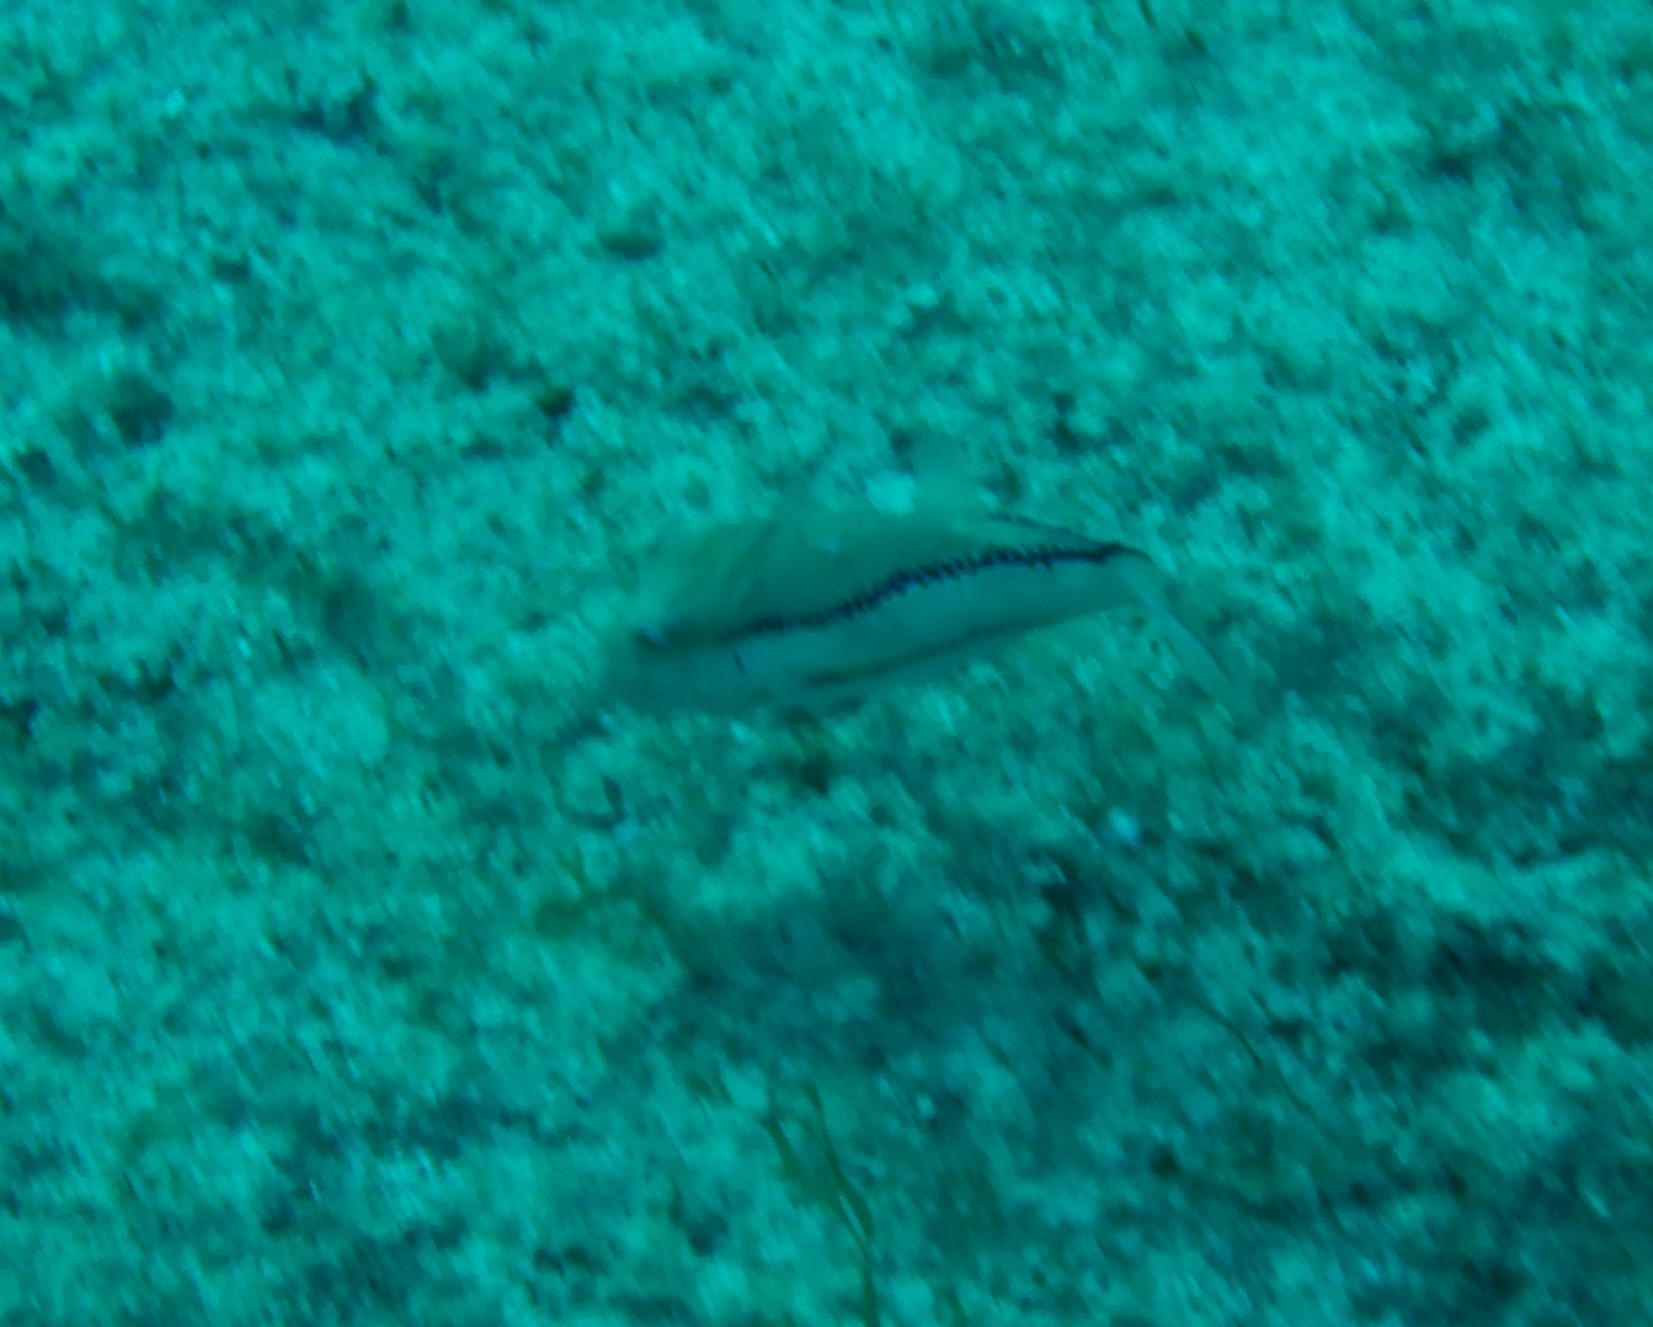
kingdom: Animalia
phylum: Chordata
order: Tetraodontiformes
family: Tetraodontidae
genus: Canthigaster
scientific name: Canthigaster capistrata
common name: Macaronesian sharpnose-puffer
